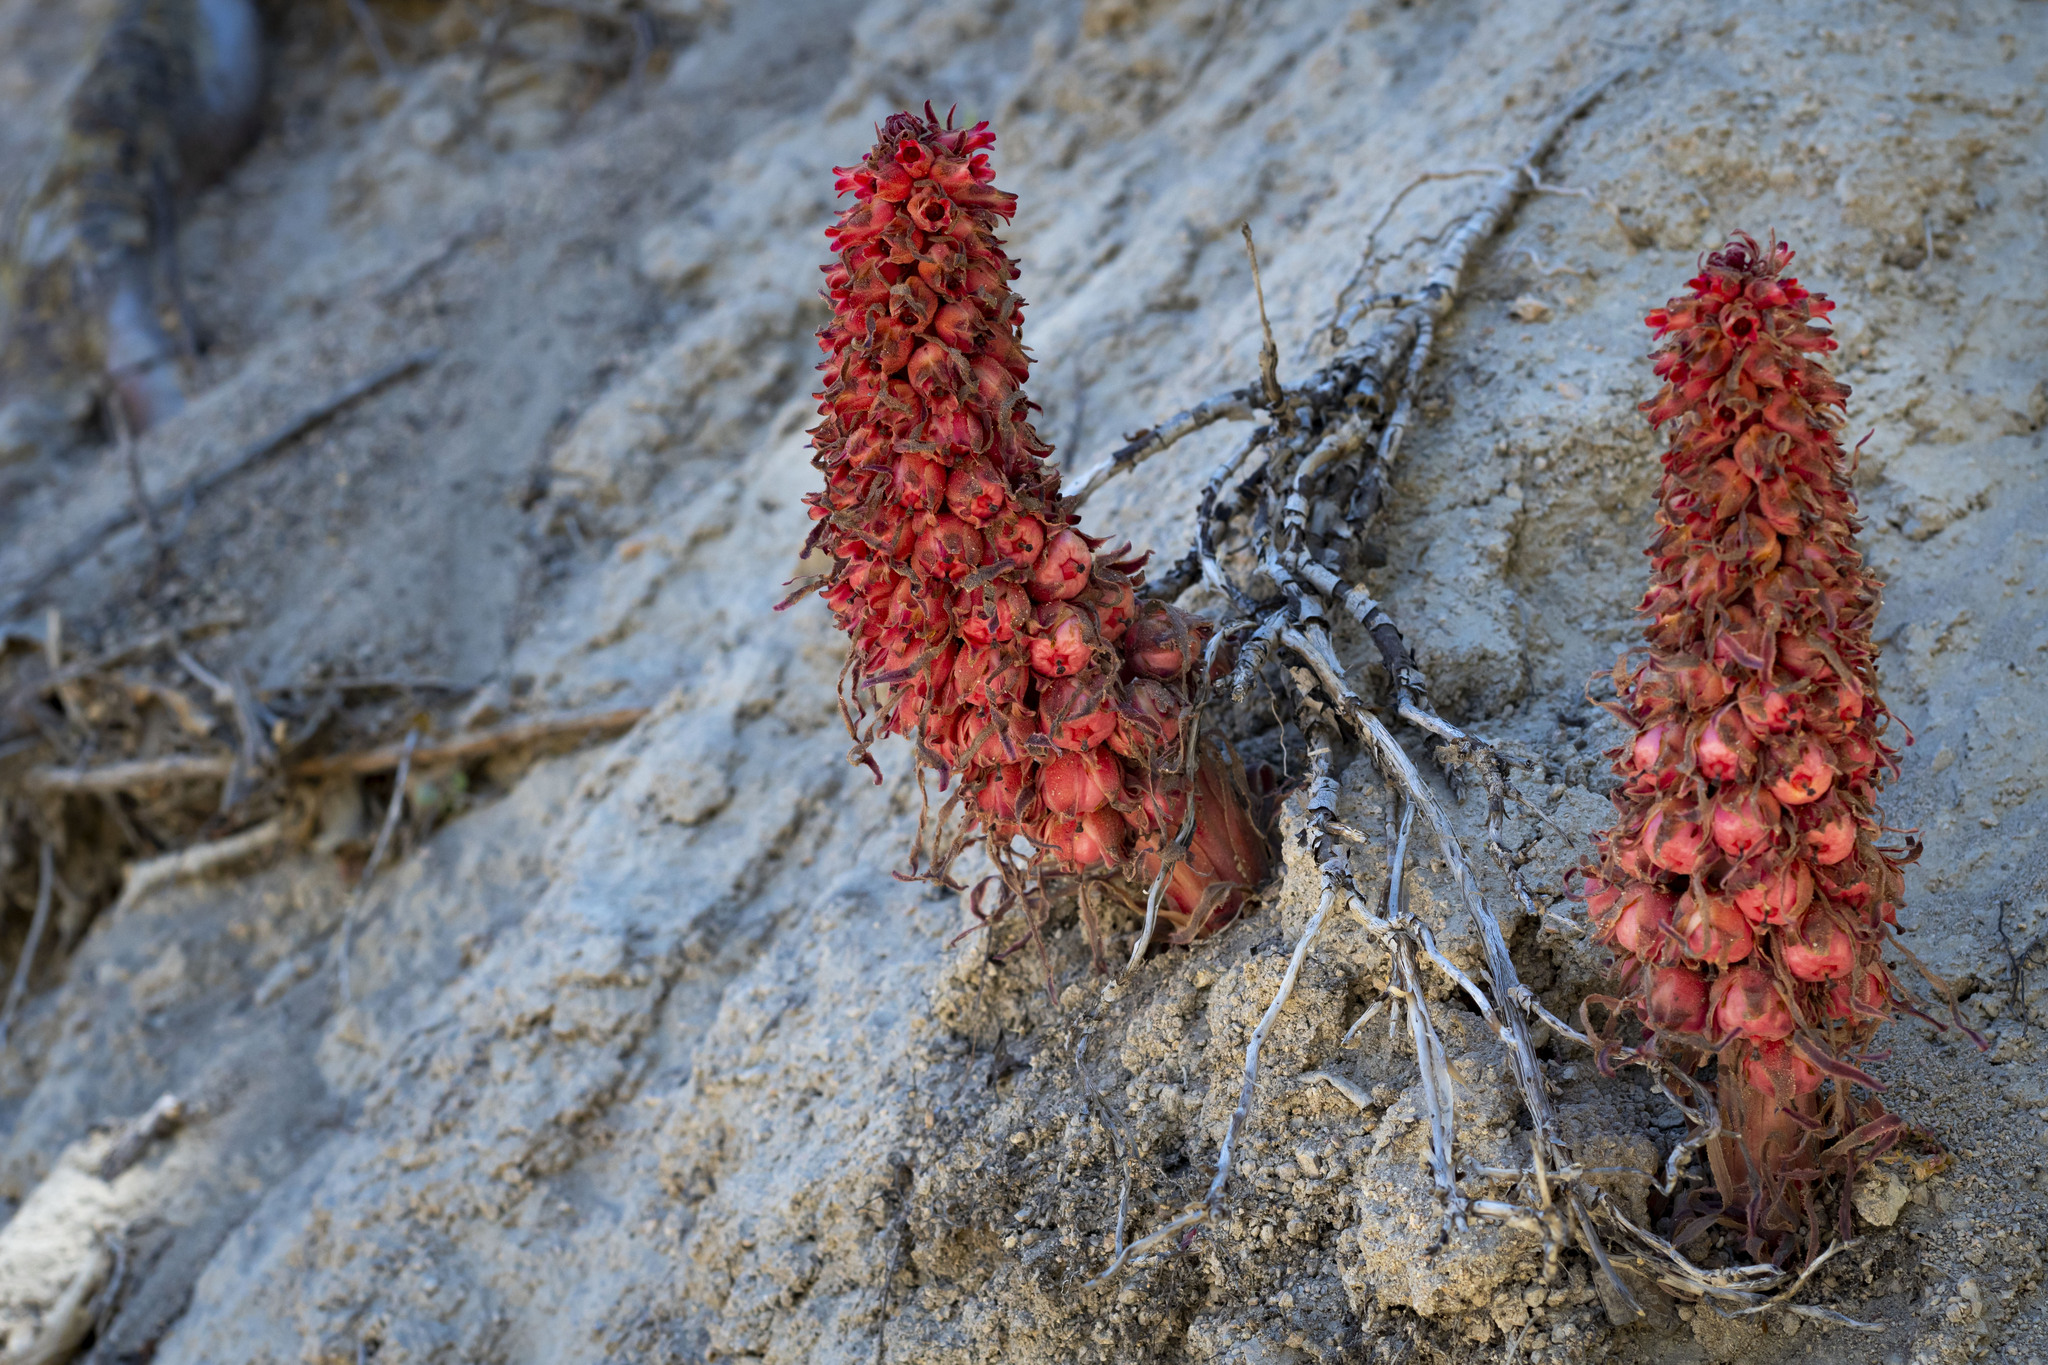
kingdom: Plantae
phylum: Tracheophyta
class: Magnoliopsida
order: Ericales
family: Ericaceae
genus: Sarcodes
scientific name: Sarcodes sanguinea
